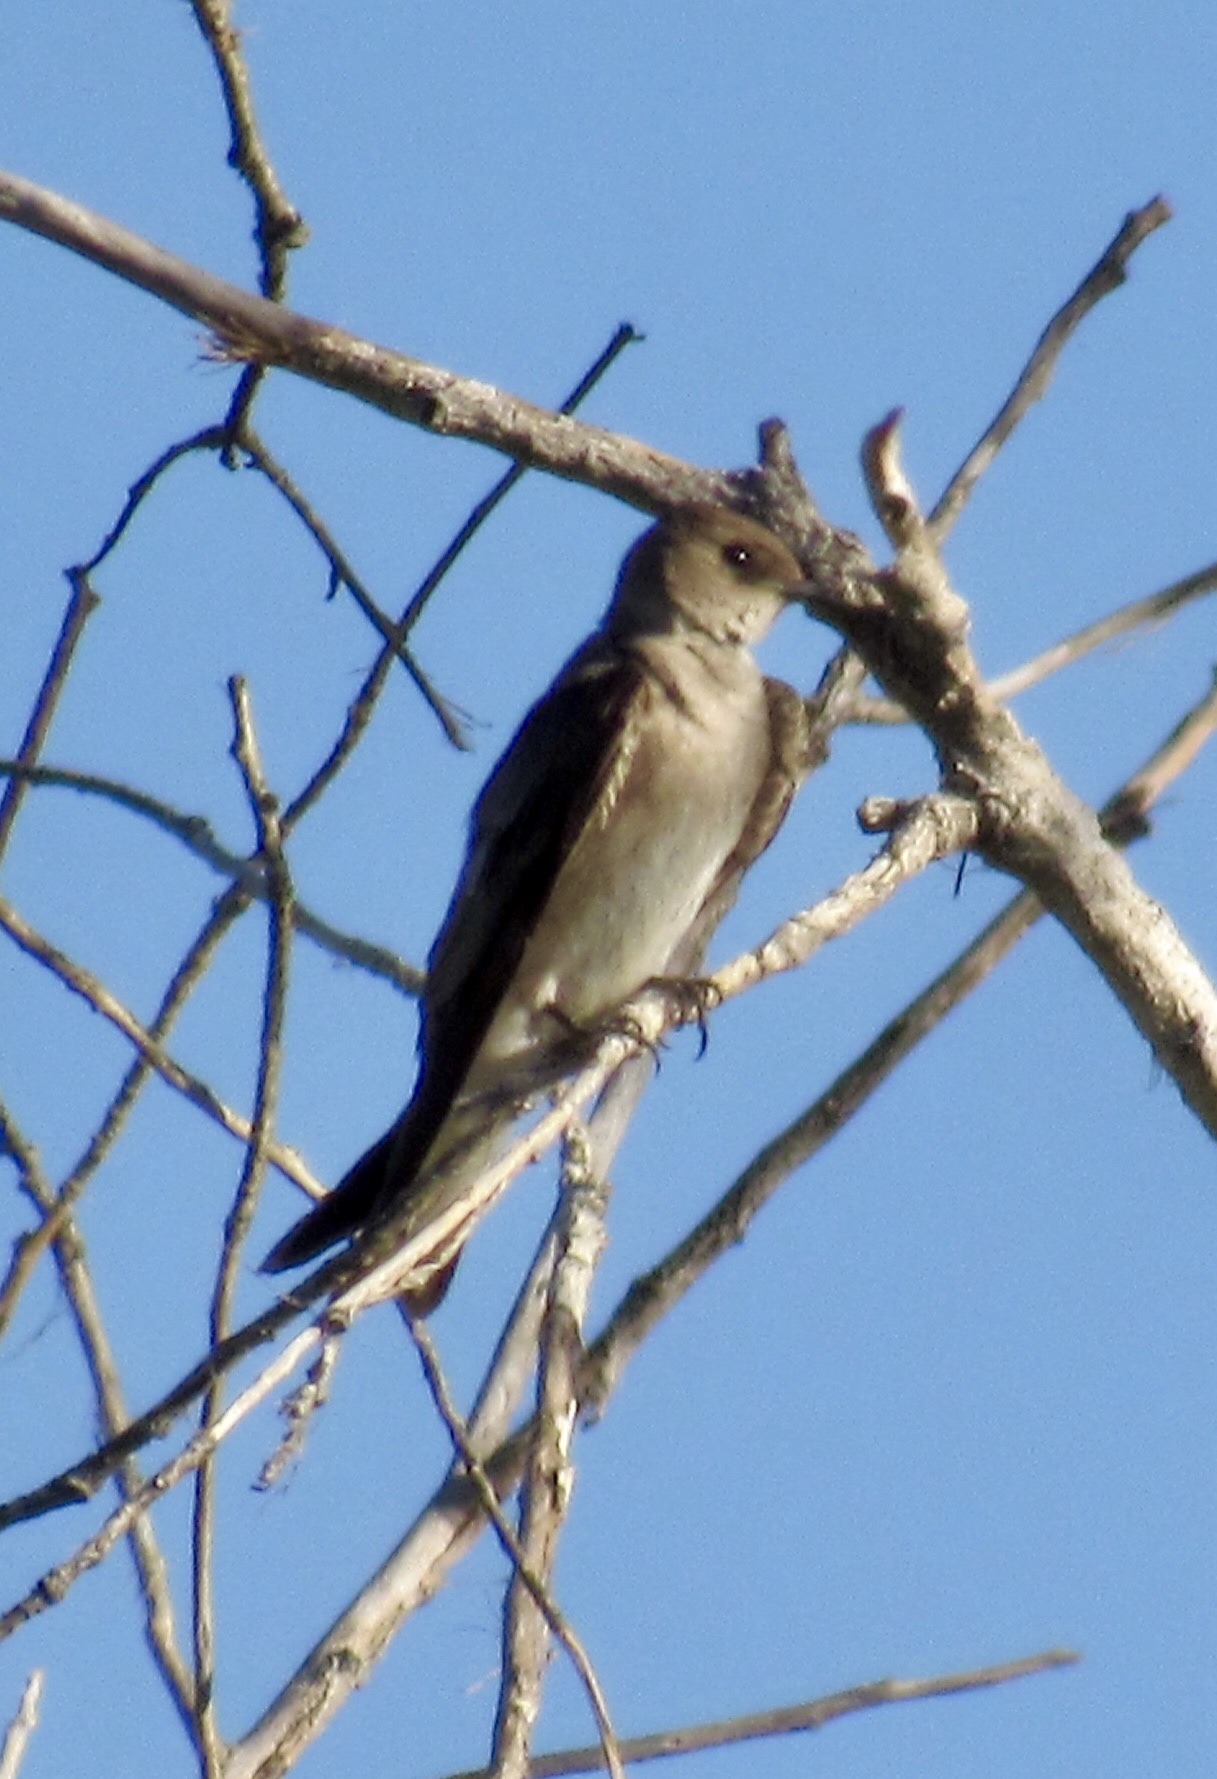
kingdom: Animalia
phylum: Chordata
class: Aves
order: Passeriformes
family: Hirundinidae
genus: Stelgidopteryx
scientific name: Stelgidopteryx serripennis
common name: Northern rough-winged swallow
